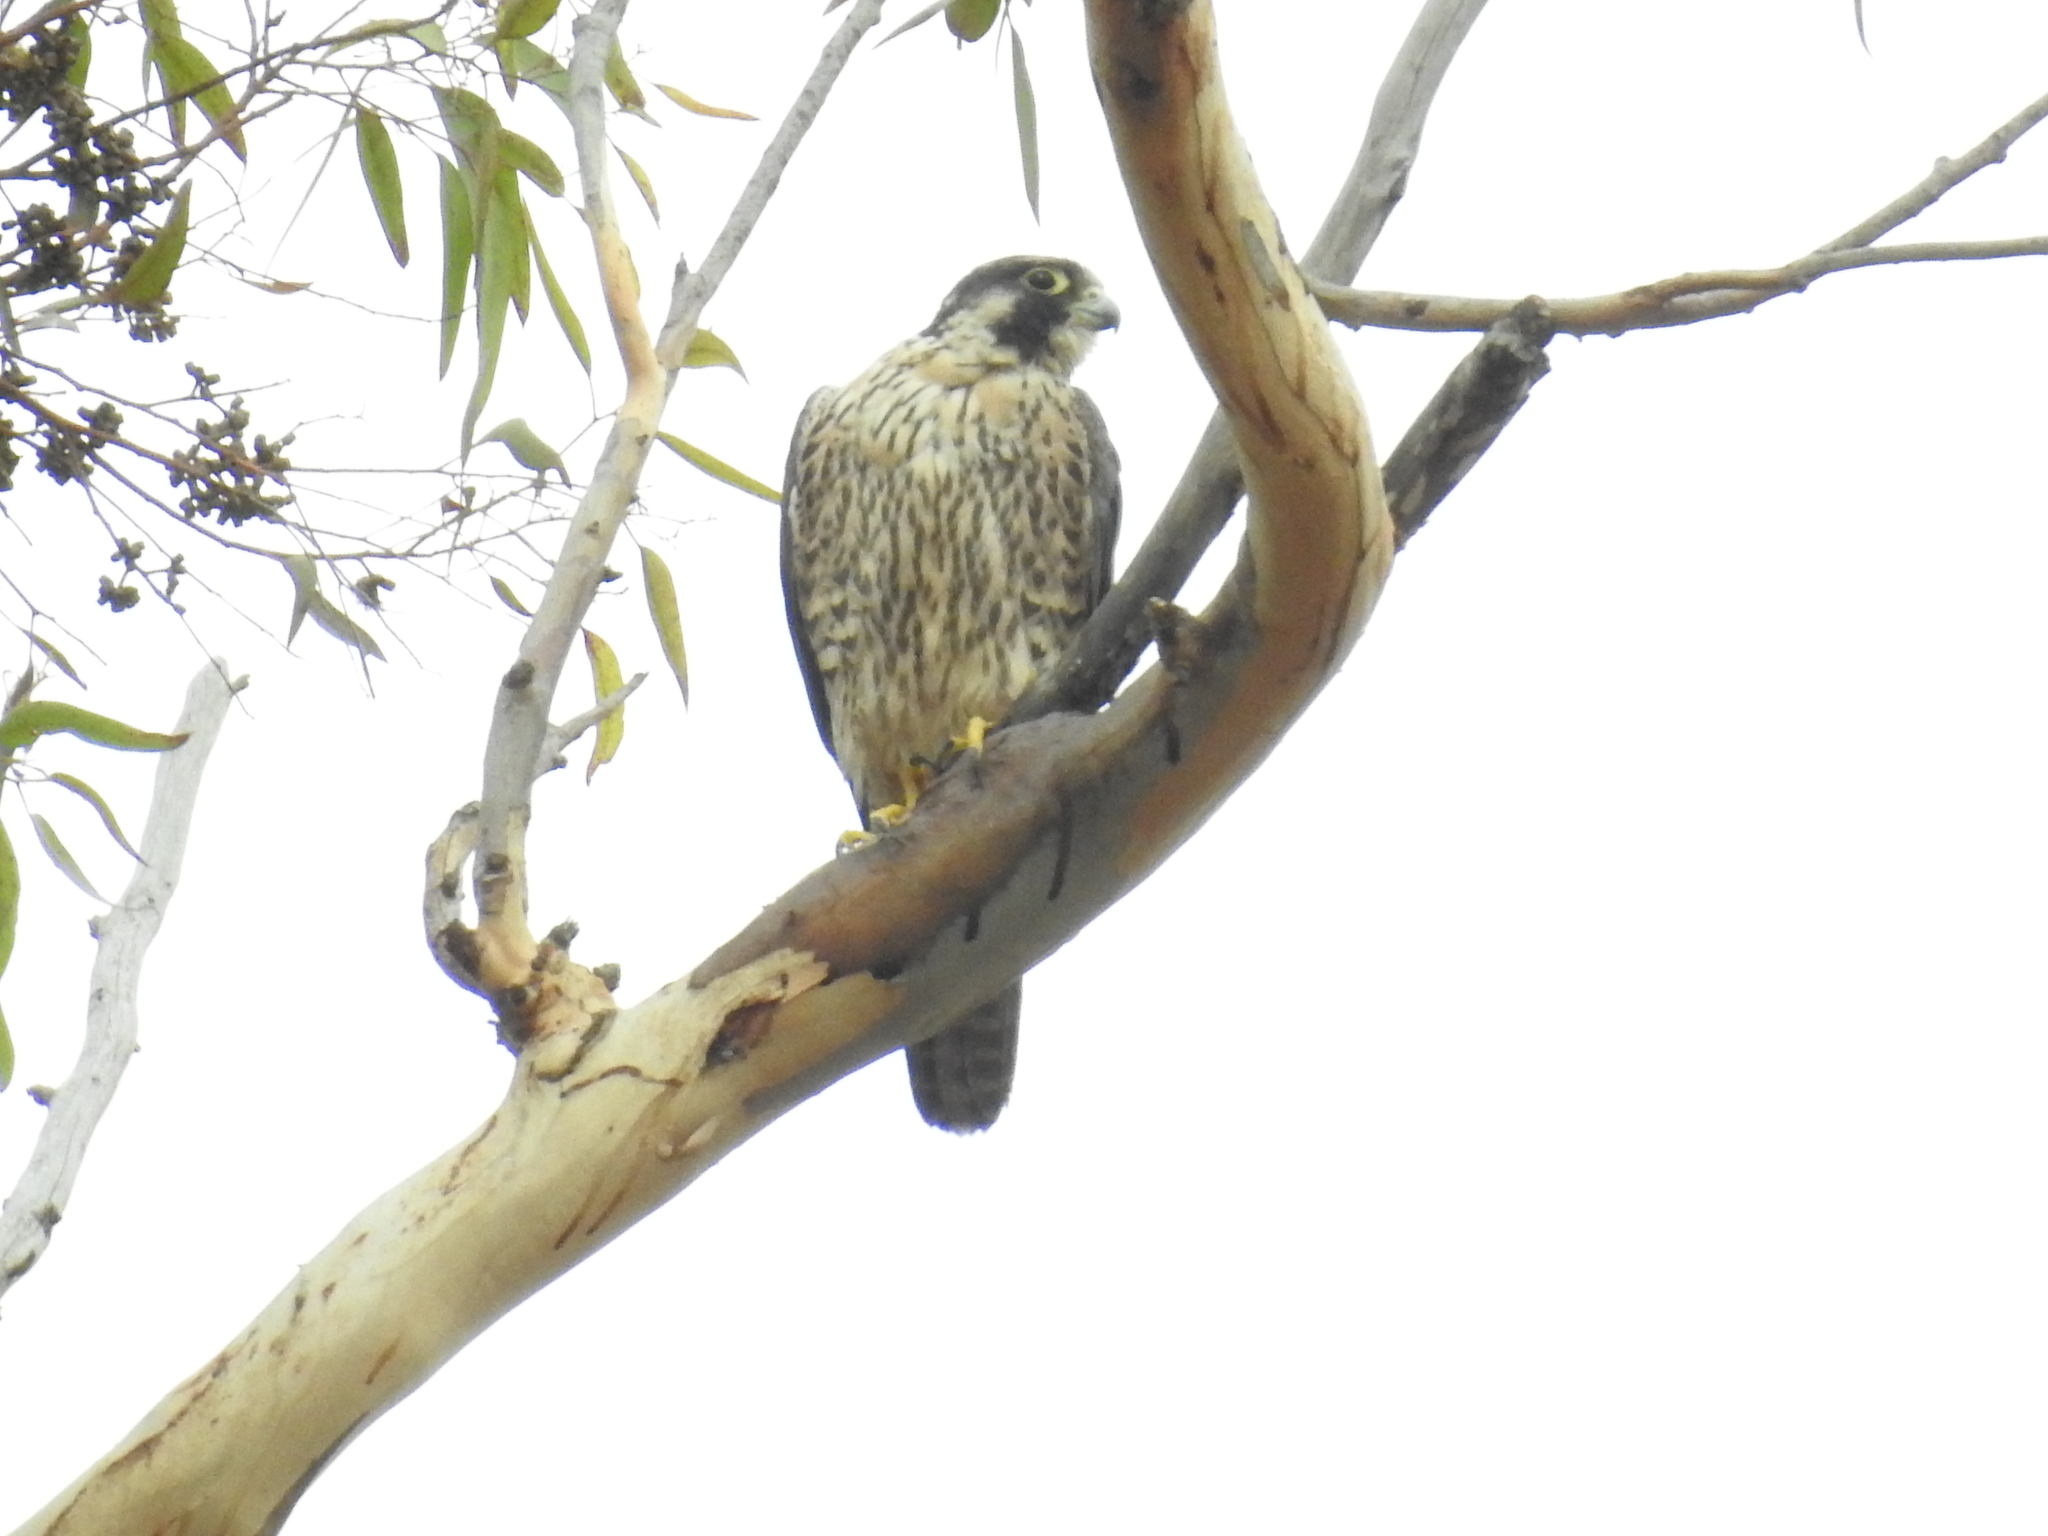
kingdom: Animalia
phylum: Chordata
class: Aves
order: Falconiformes
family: Falconidae
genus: Falco
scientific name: Falco peregrinus
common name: Peregrine falcon
